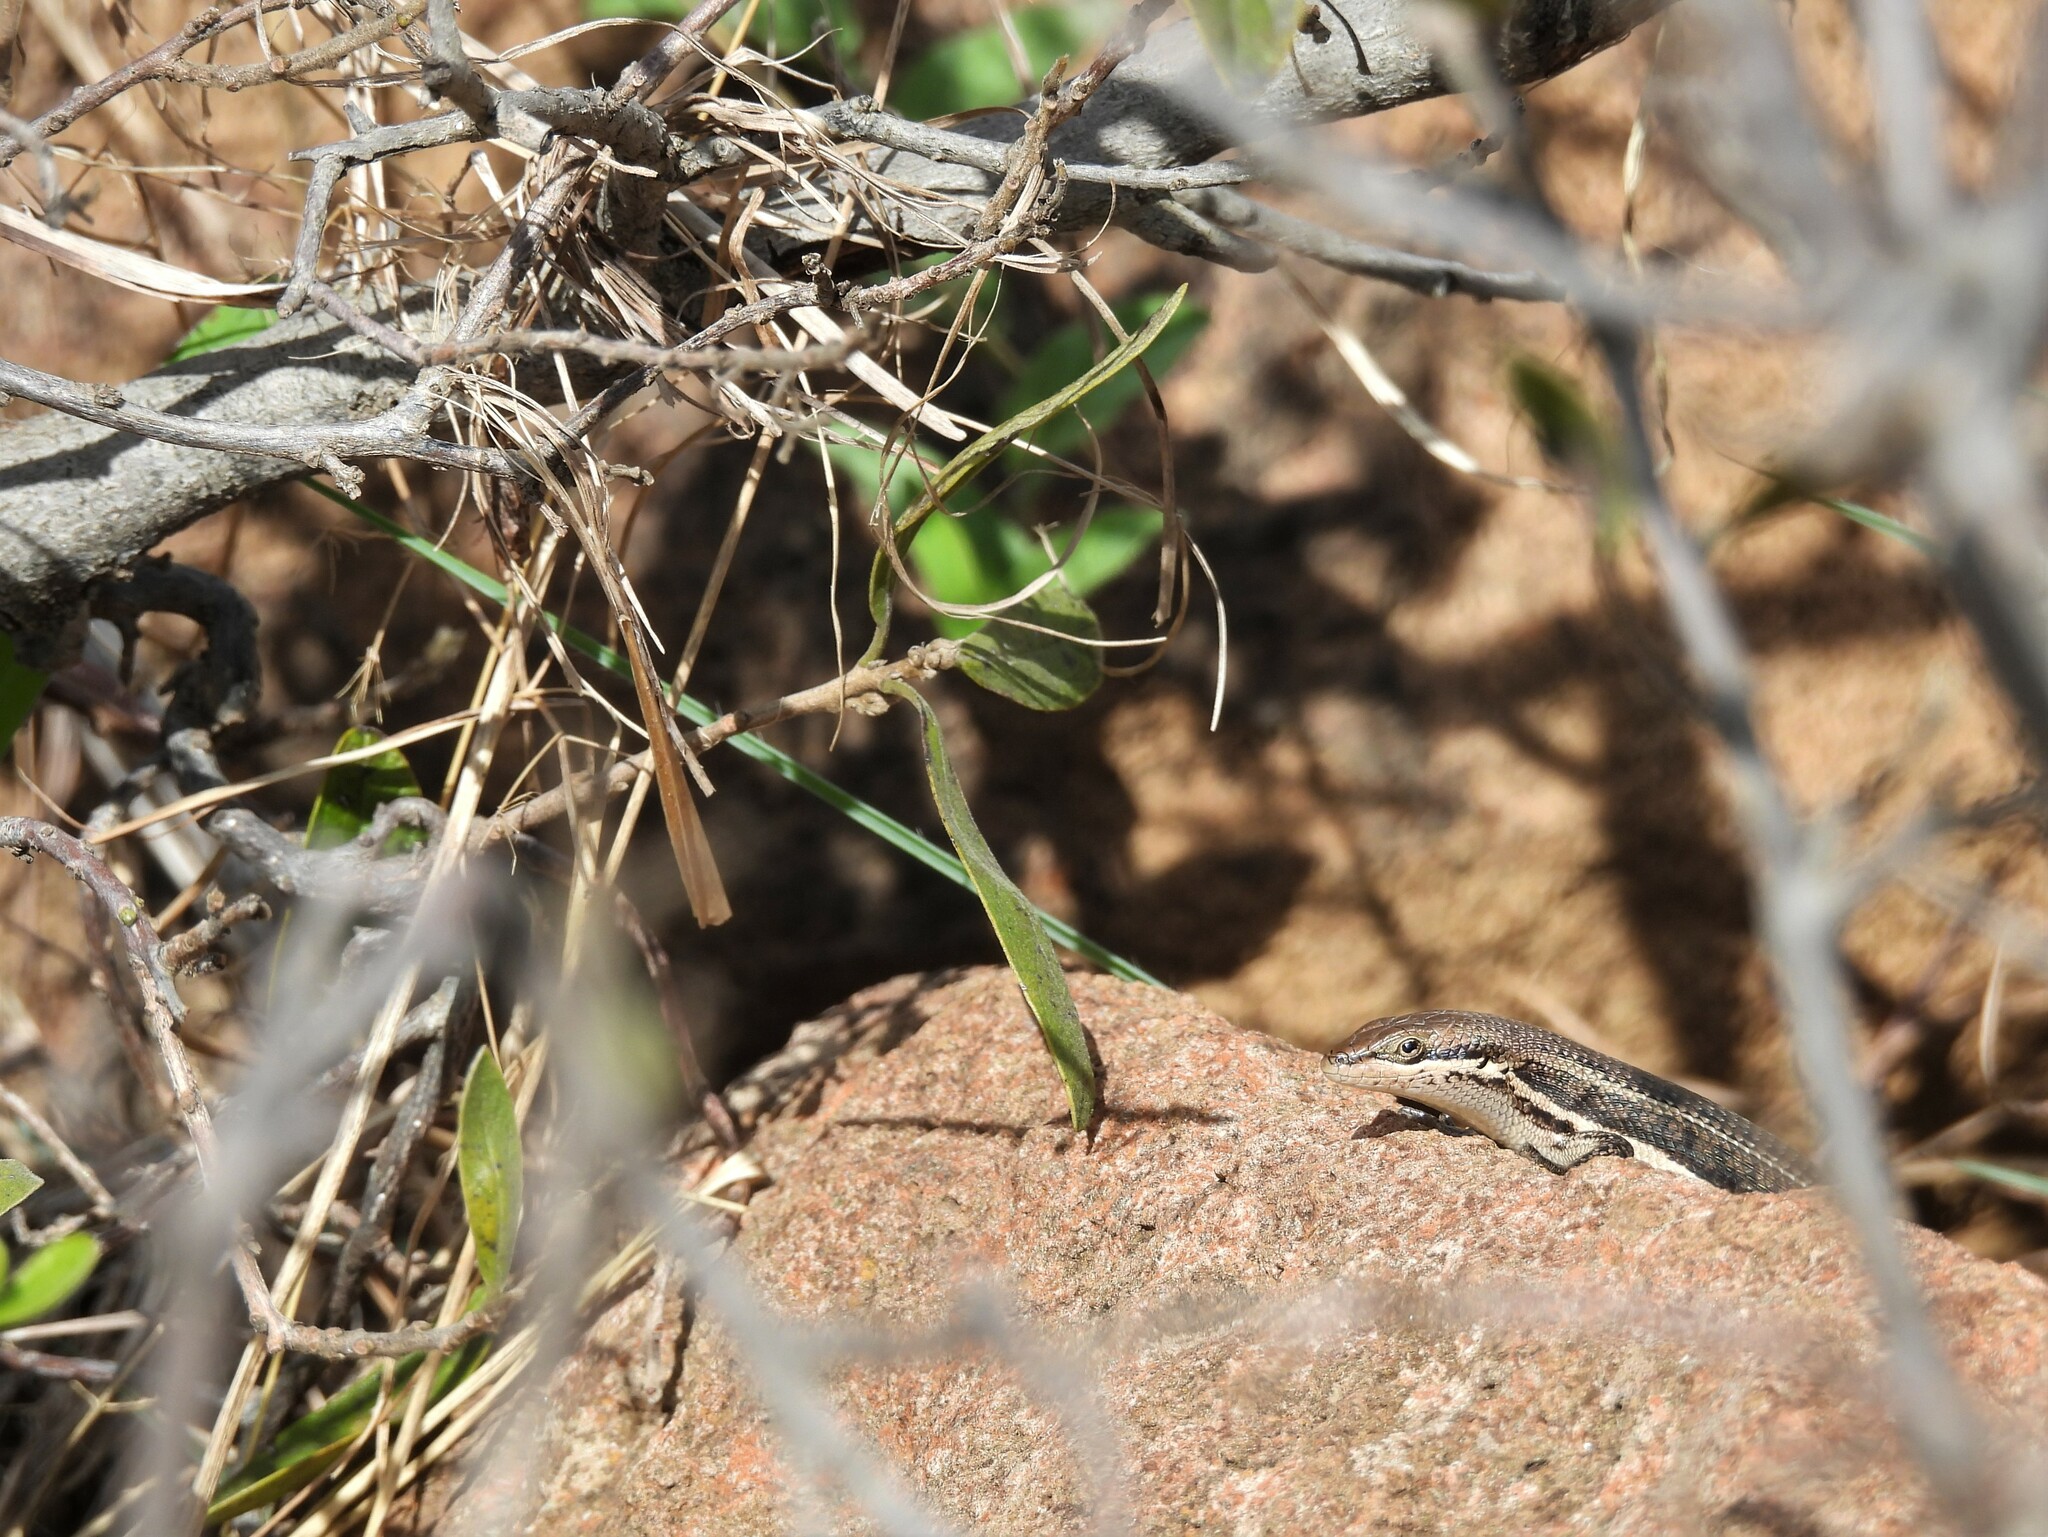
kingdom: Animalia
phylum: Chordata
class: Squamata
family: Scincidae
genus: Trachylepis
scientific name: Trachylepis varia
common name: Eastern variable skink
